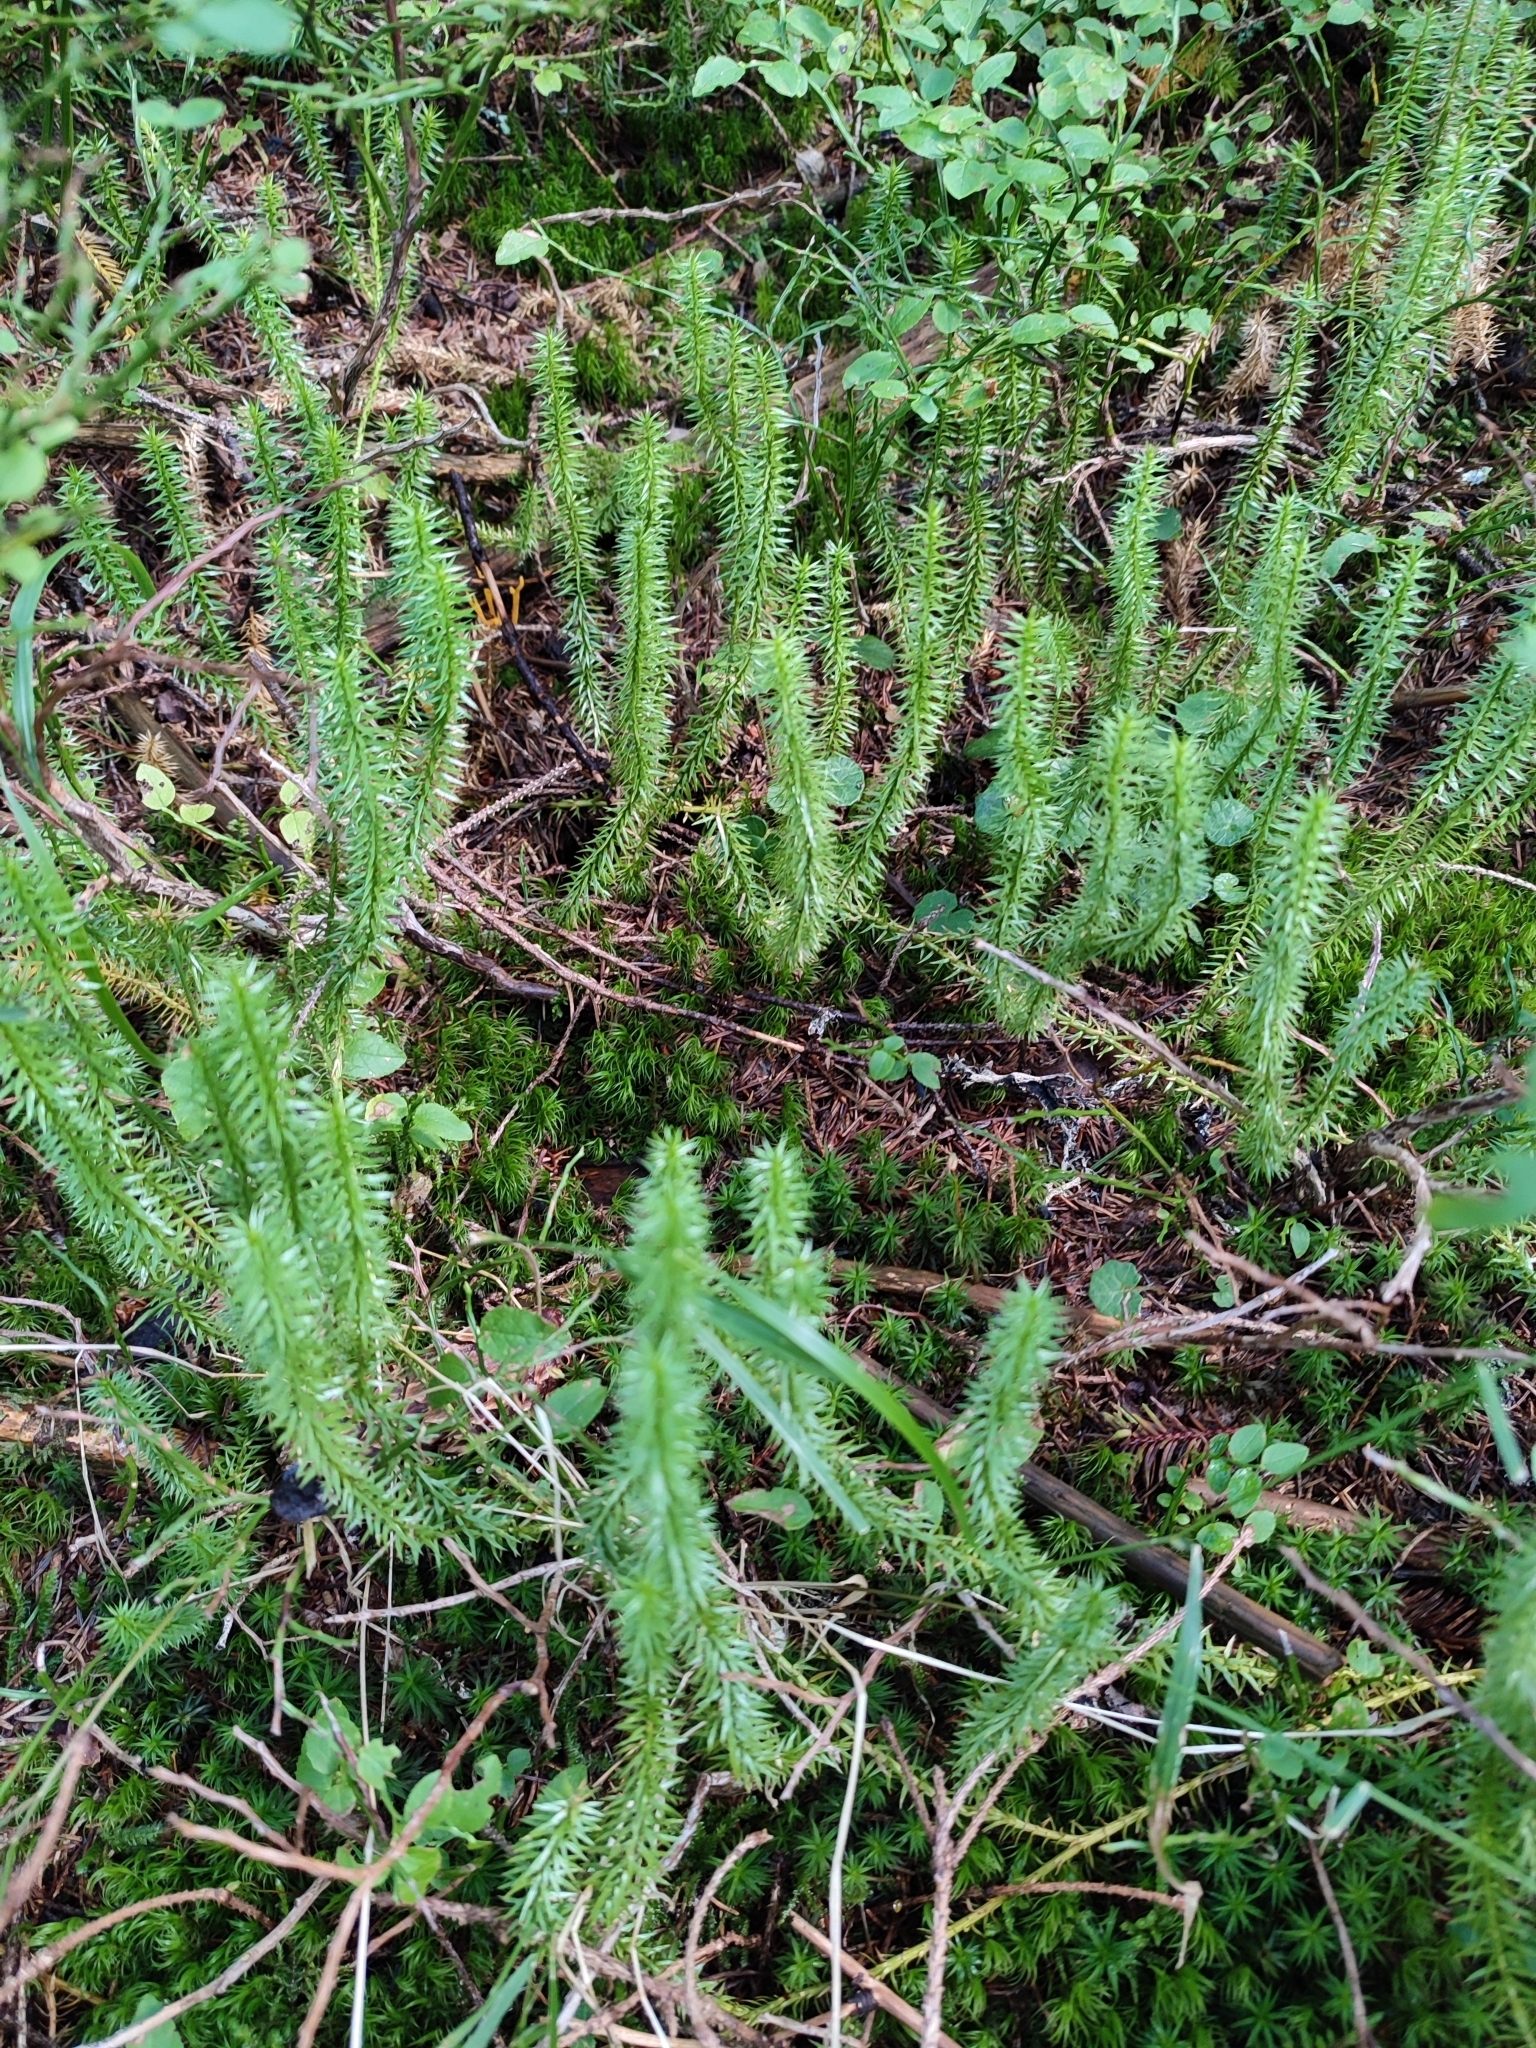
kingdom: Plantae
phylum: Tracheophyta
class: Lycopodiopsida
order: Lycopodiales
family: Lycopodiaceae
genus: Spinulum
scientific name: Spinulum annotinum
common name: Interrupted club-moss
